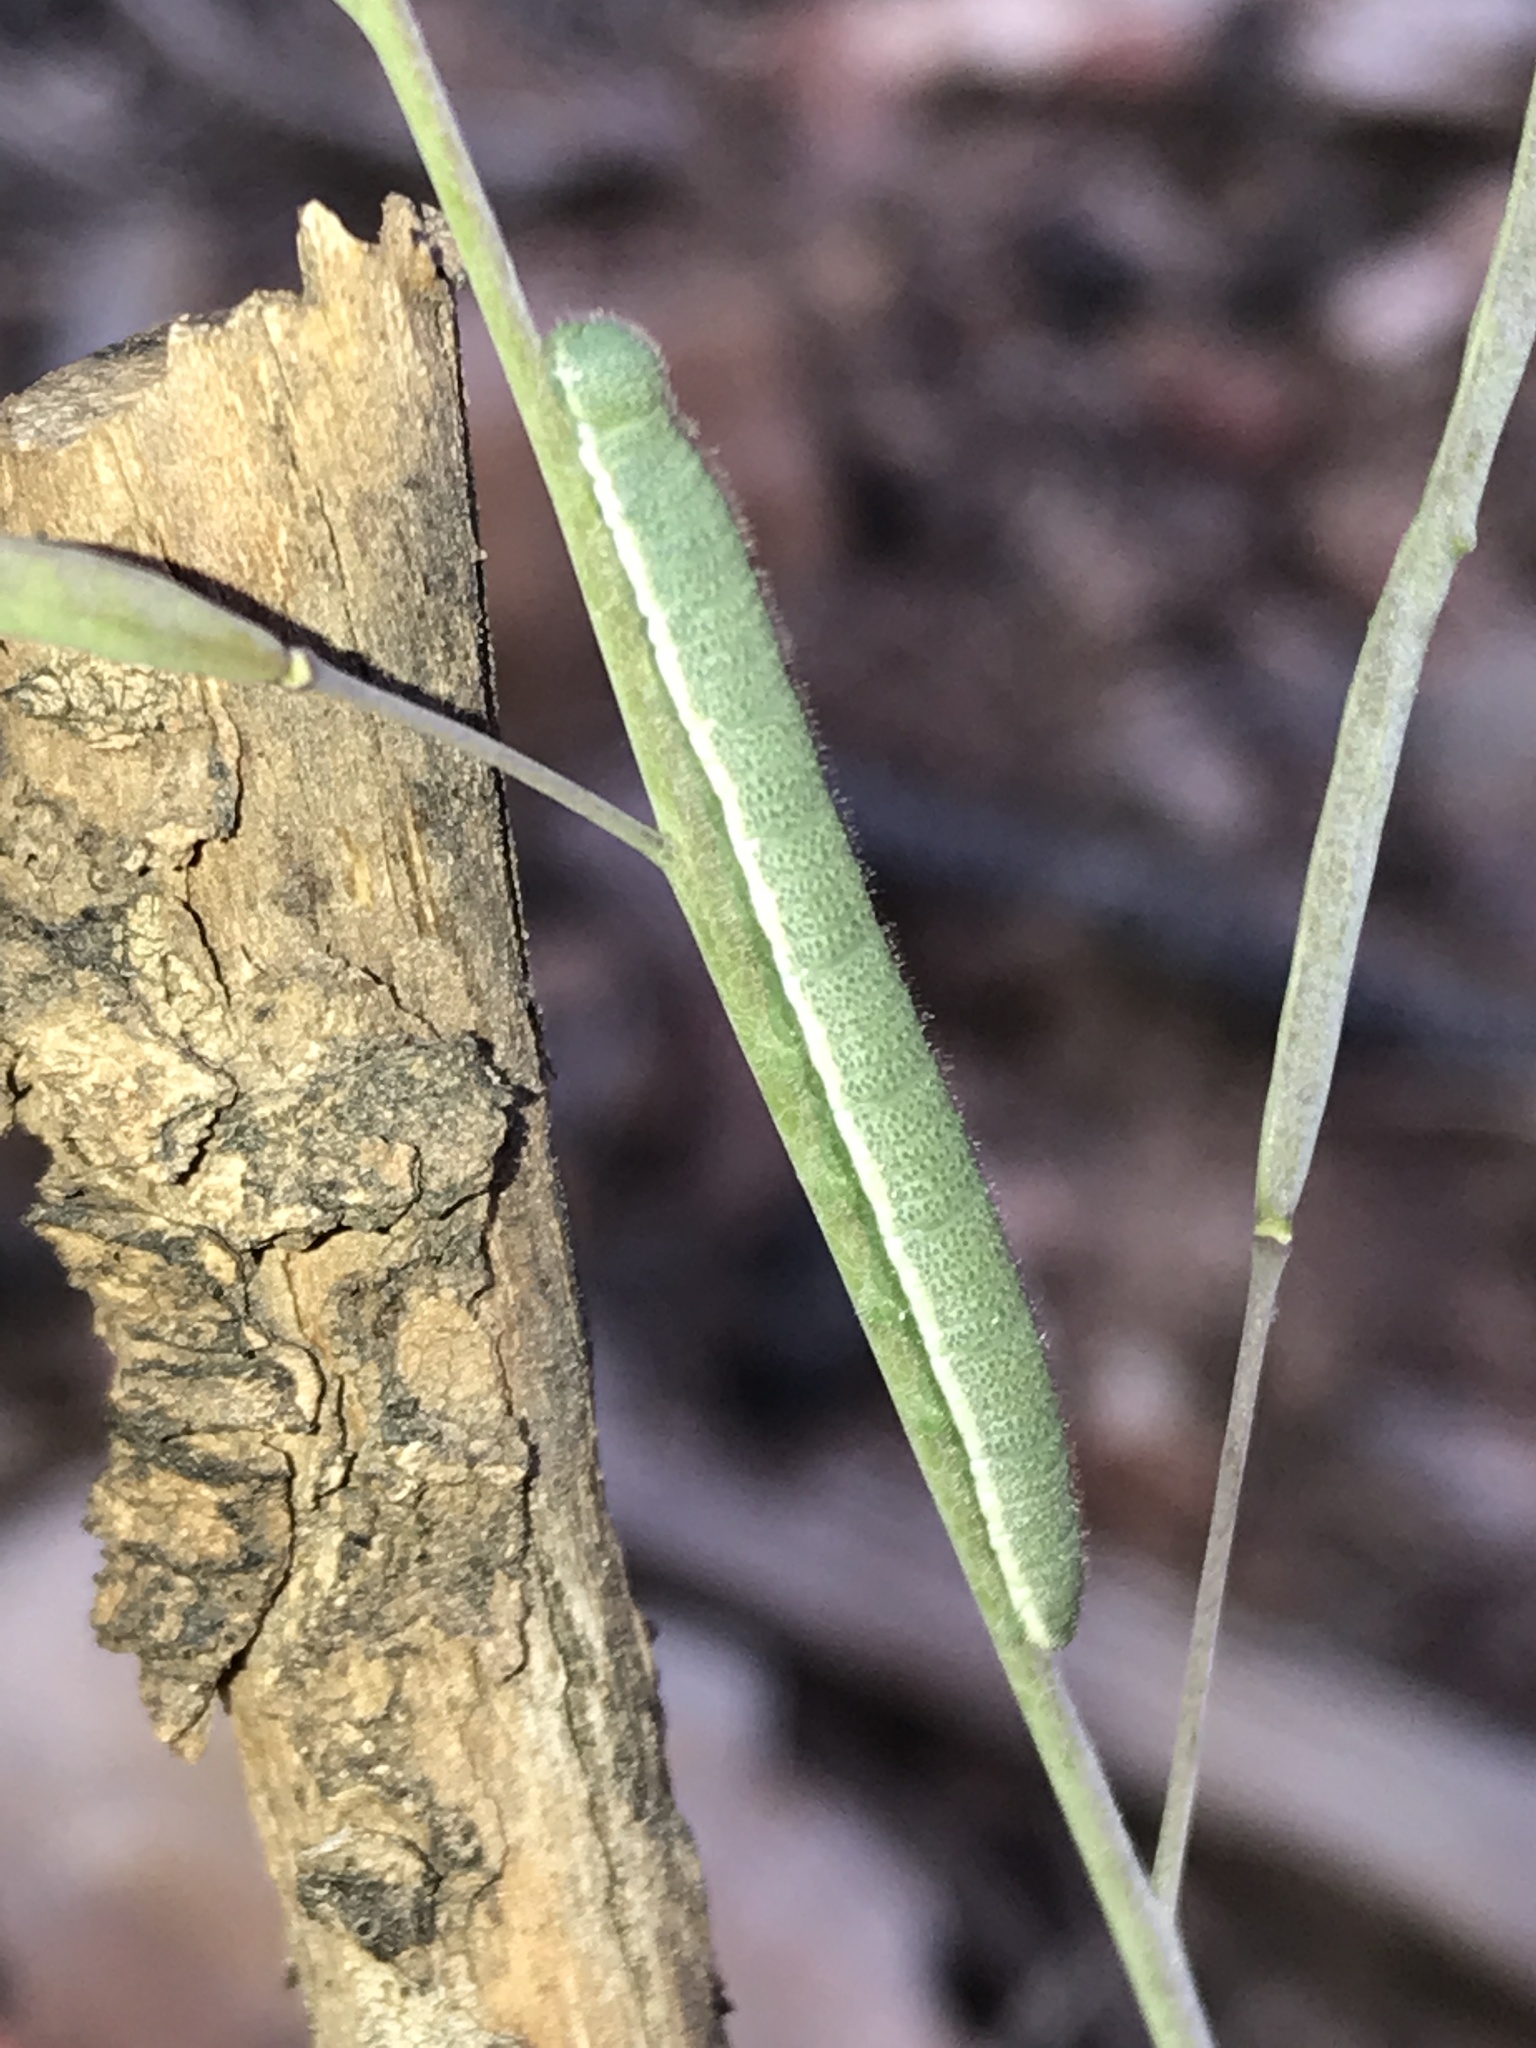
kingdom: Animalia
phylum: Arthropoda
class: Insecta
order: Lepidoptera
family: Pieridae
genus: Anthocharis
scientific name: Anthocharis thoosa
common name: Southwestern orangetip
